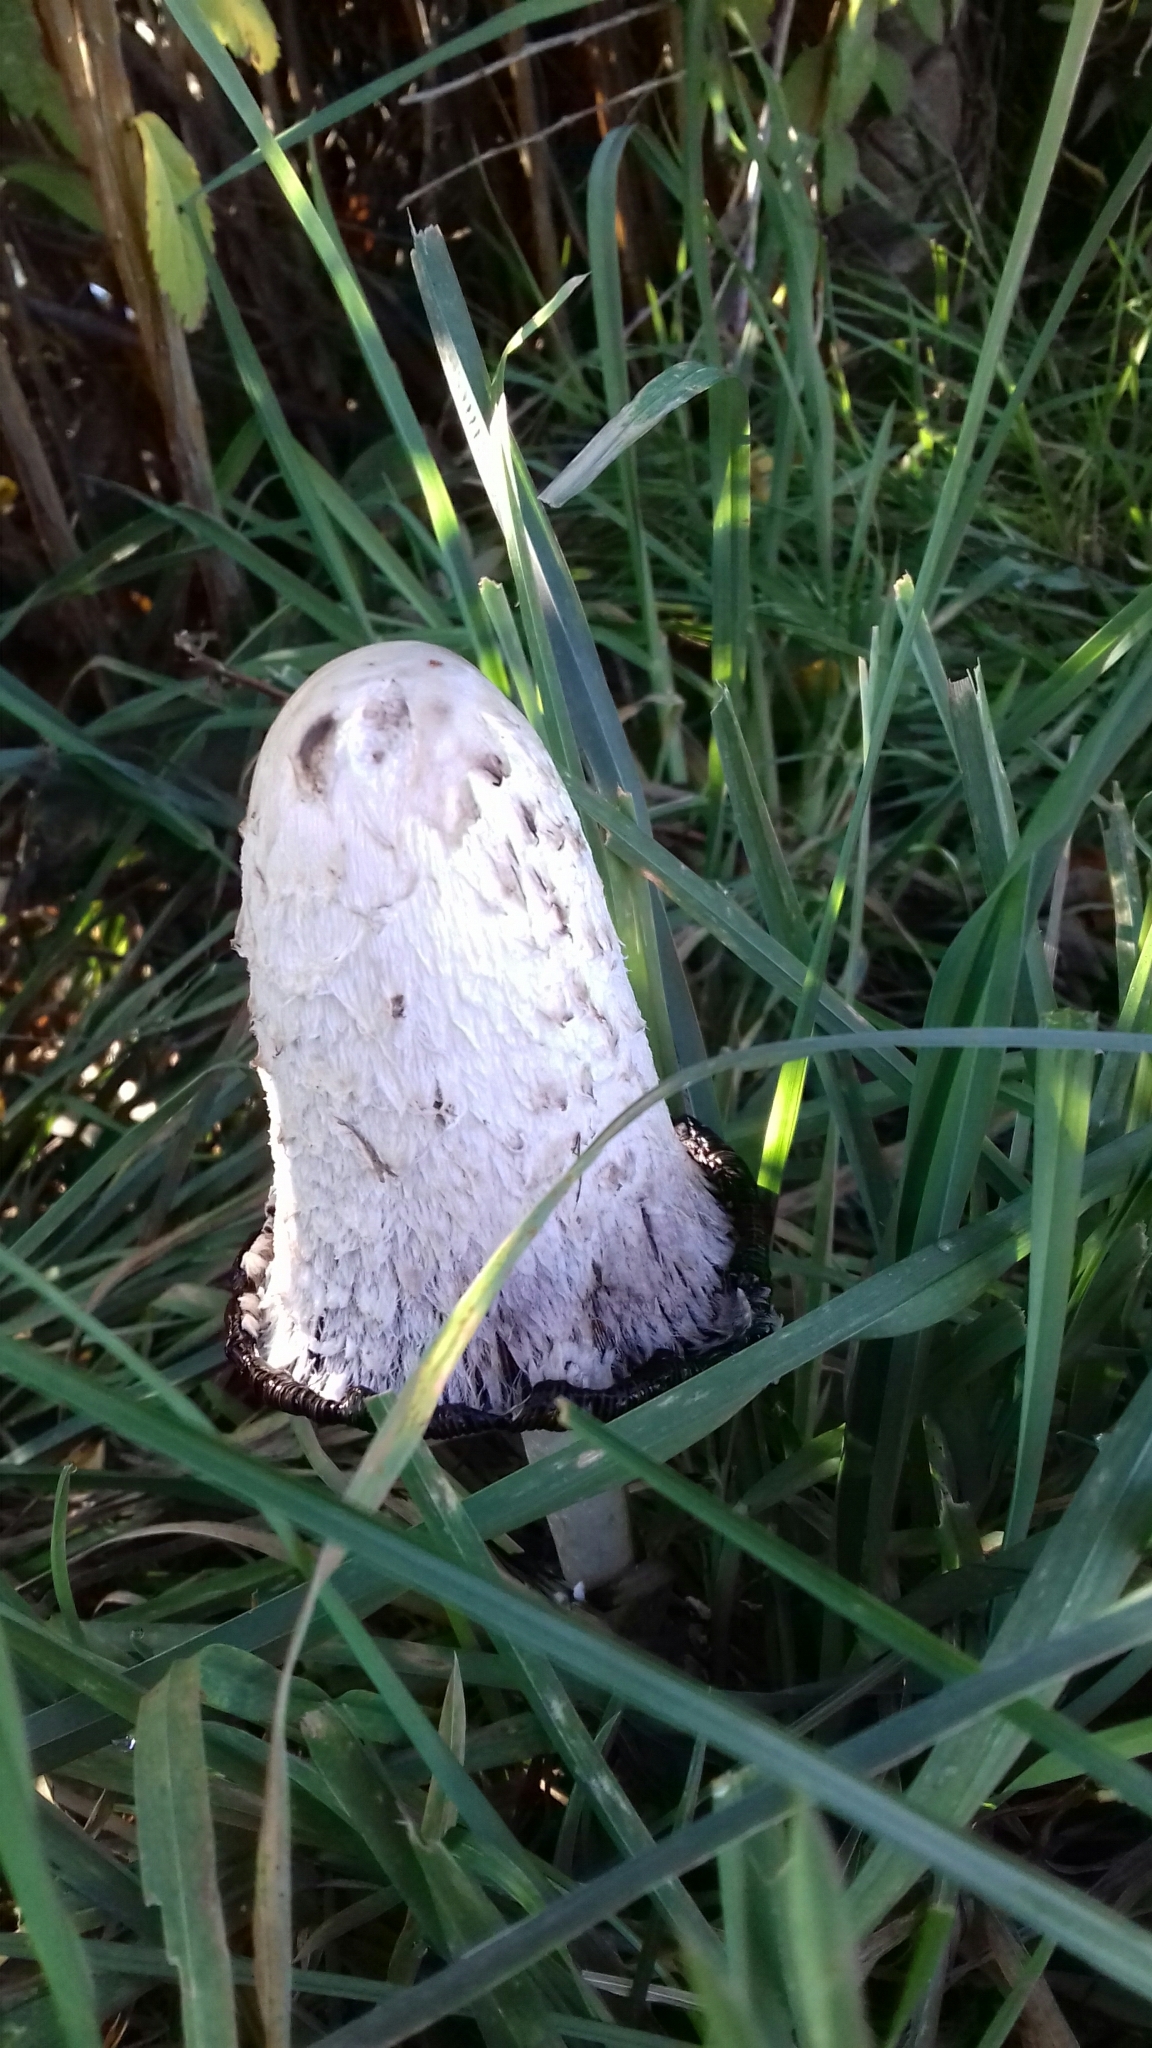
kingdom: Fungi
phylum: Basidiomycota
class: Agaricomycetes
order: Agaricales
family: Agaricaceae
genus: Coprinus
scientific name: Coprinus comatus
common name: Lawyer's wig
